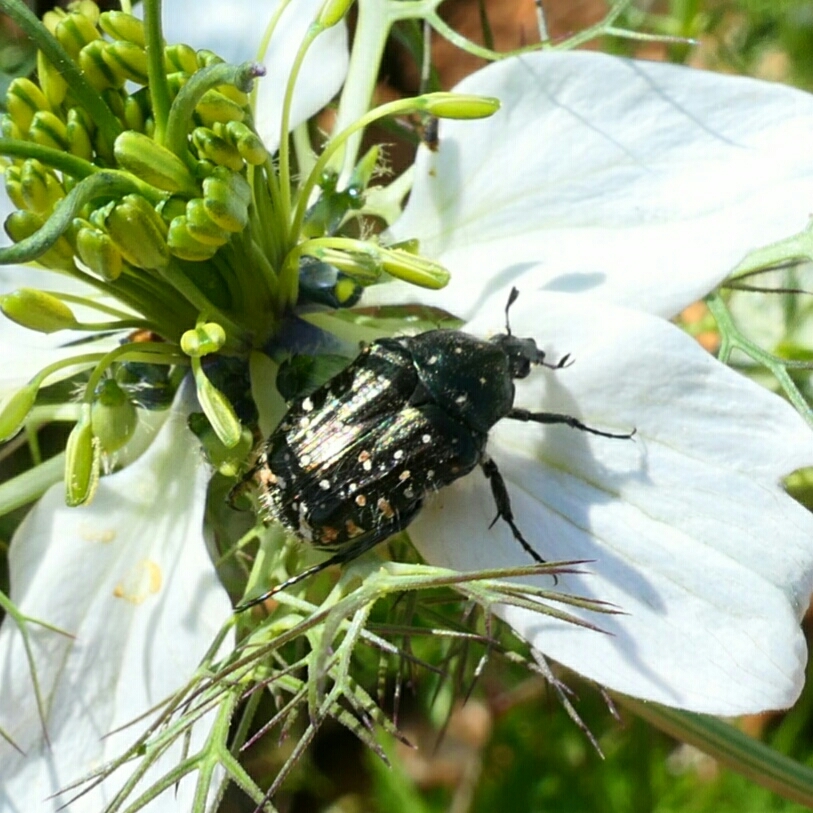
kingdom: Animalia
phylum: Arthropoda
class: Insecta
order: Coleoptera
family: Scarabaeidae
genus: Oxythyrea
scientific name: Oxythyrea funesta
